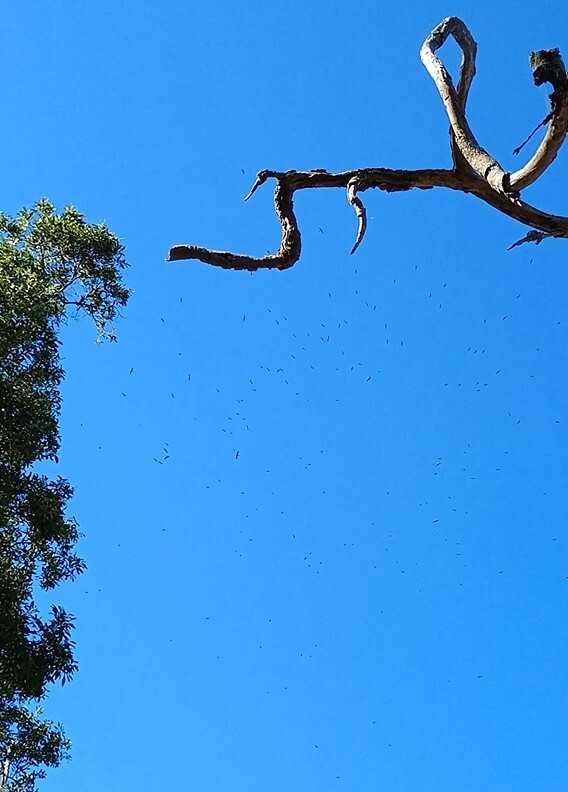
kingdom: Animalia
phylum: Chordata
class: Aves
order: Apodiformes
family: Apodidae
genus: Hirundapus
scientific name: Hirundapus caudacutus
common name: White-throated needletail
